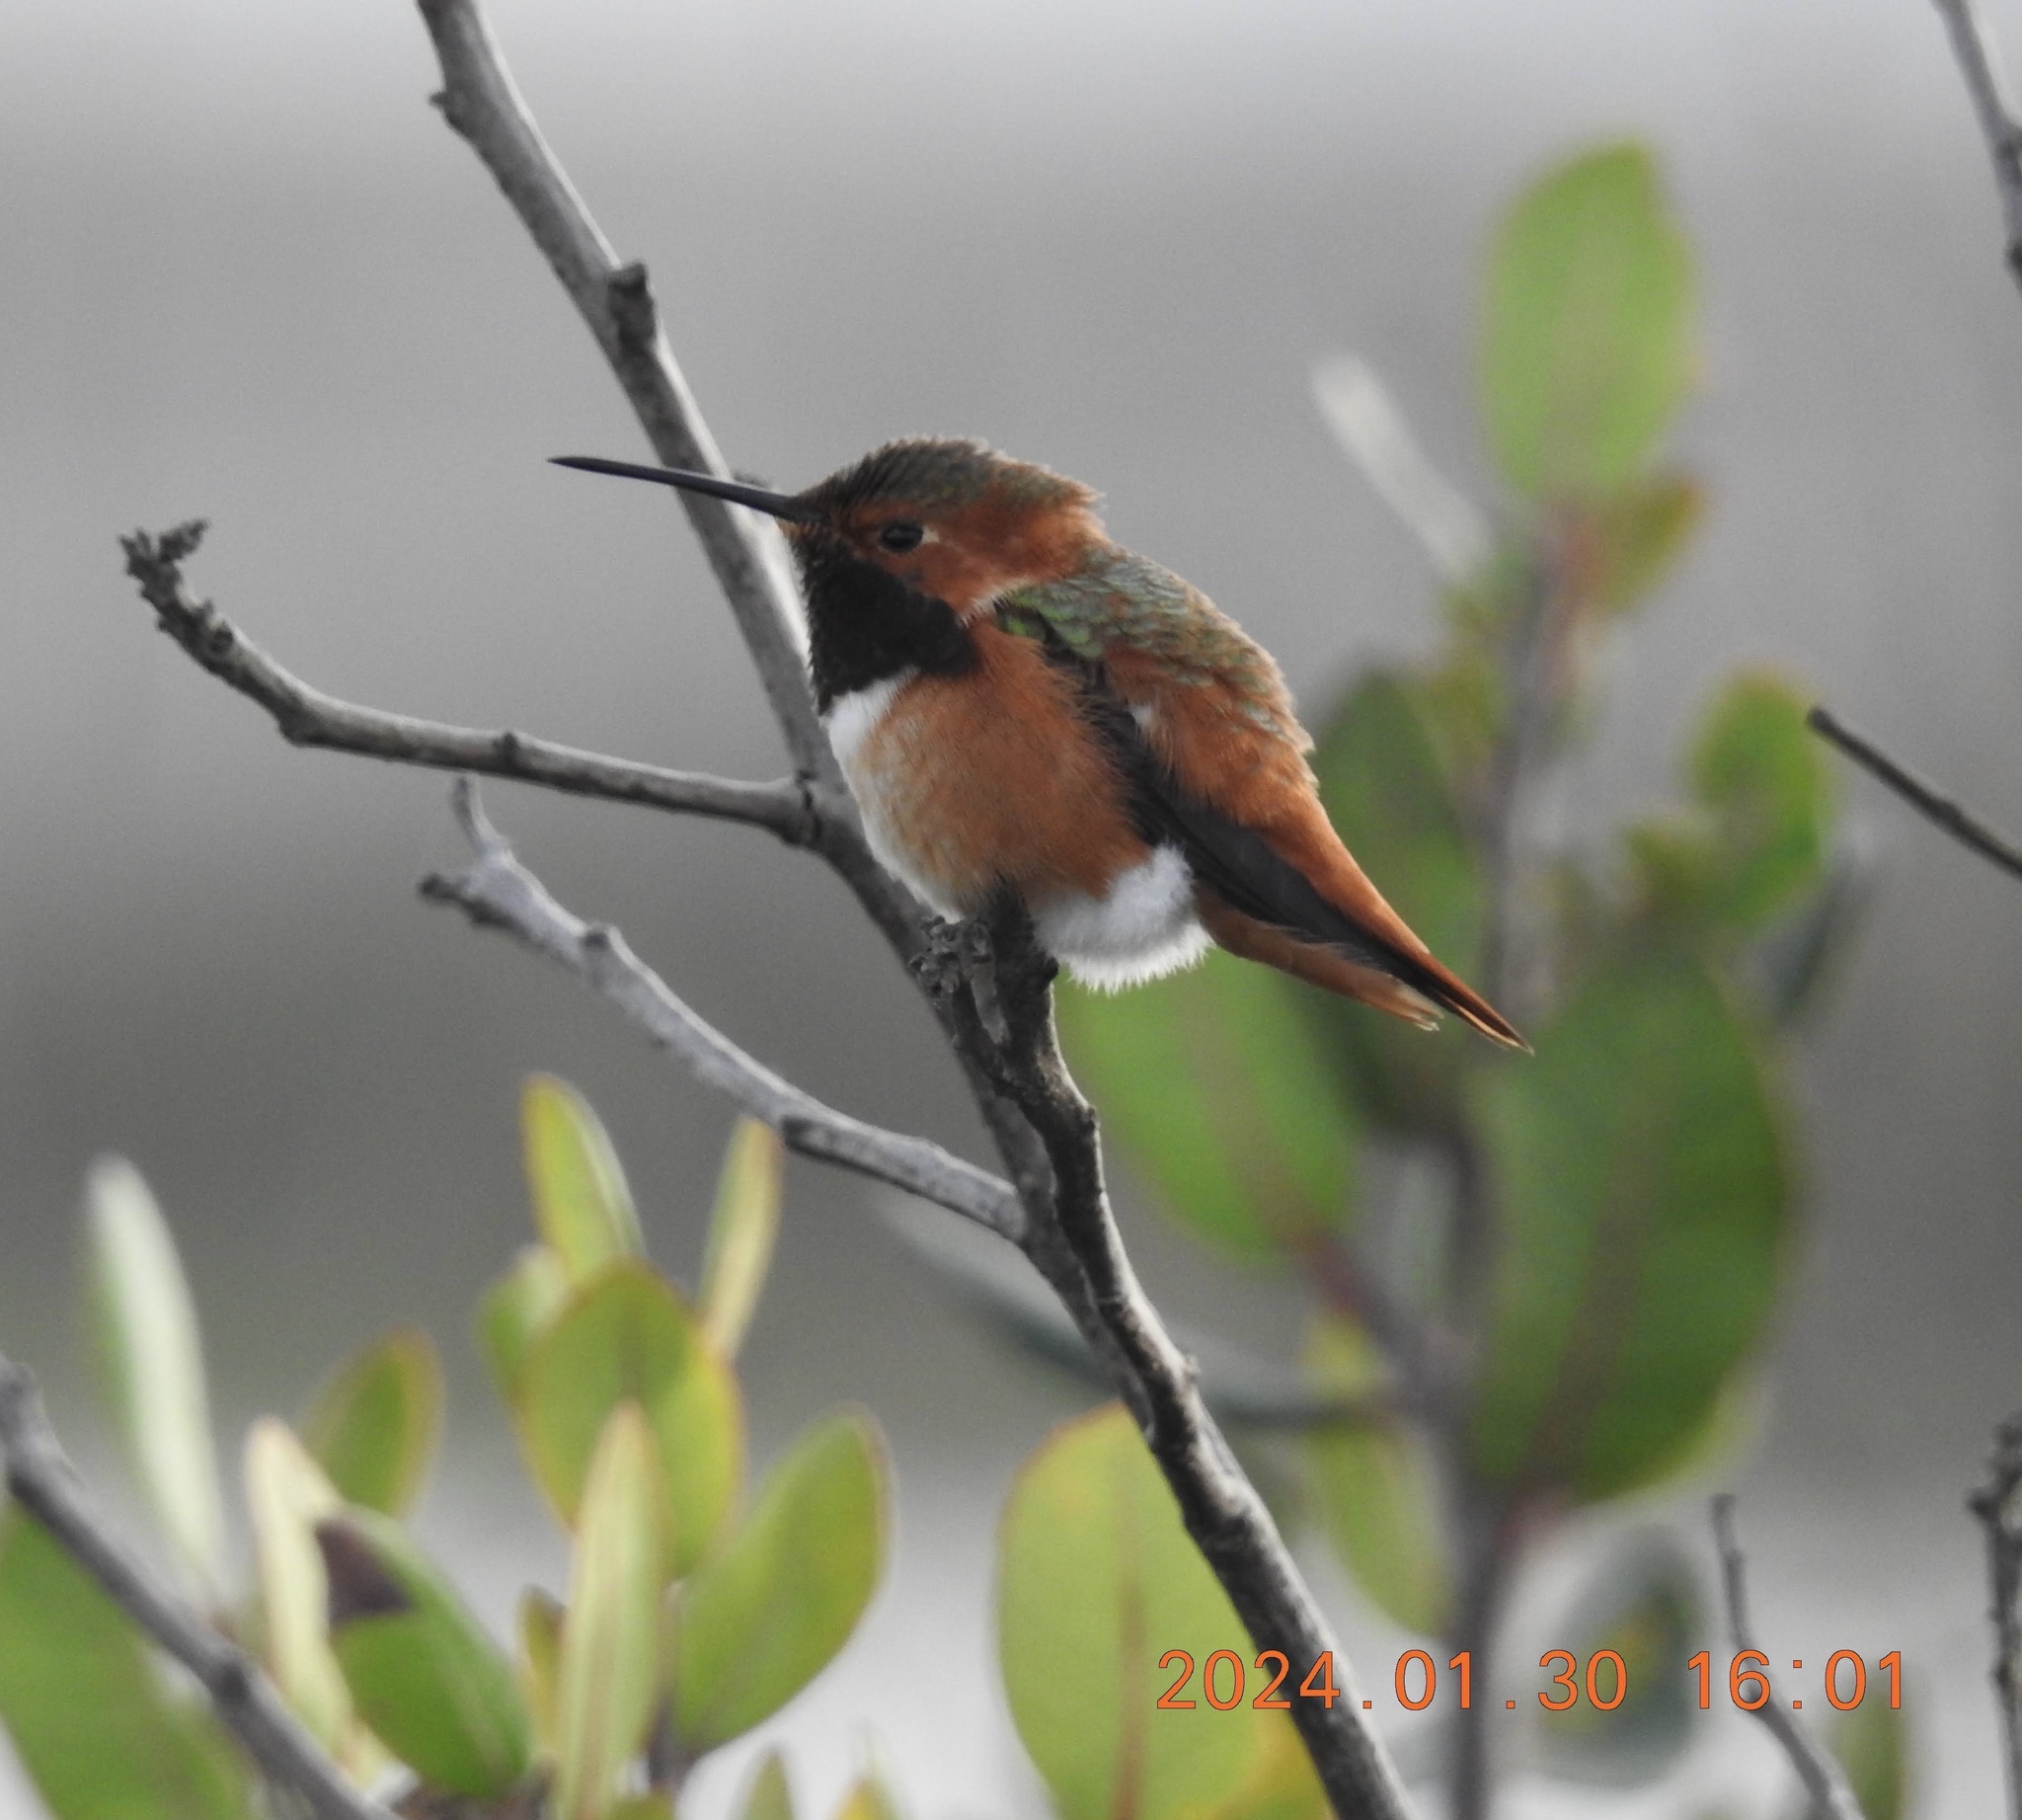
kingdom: Animalia
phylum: Chordata
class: Aves
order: Apodiformes
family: Trochilidae
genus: Selasphorus
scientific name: Selasphorus sasin
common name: Allen's hummingbird
